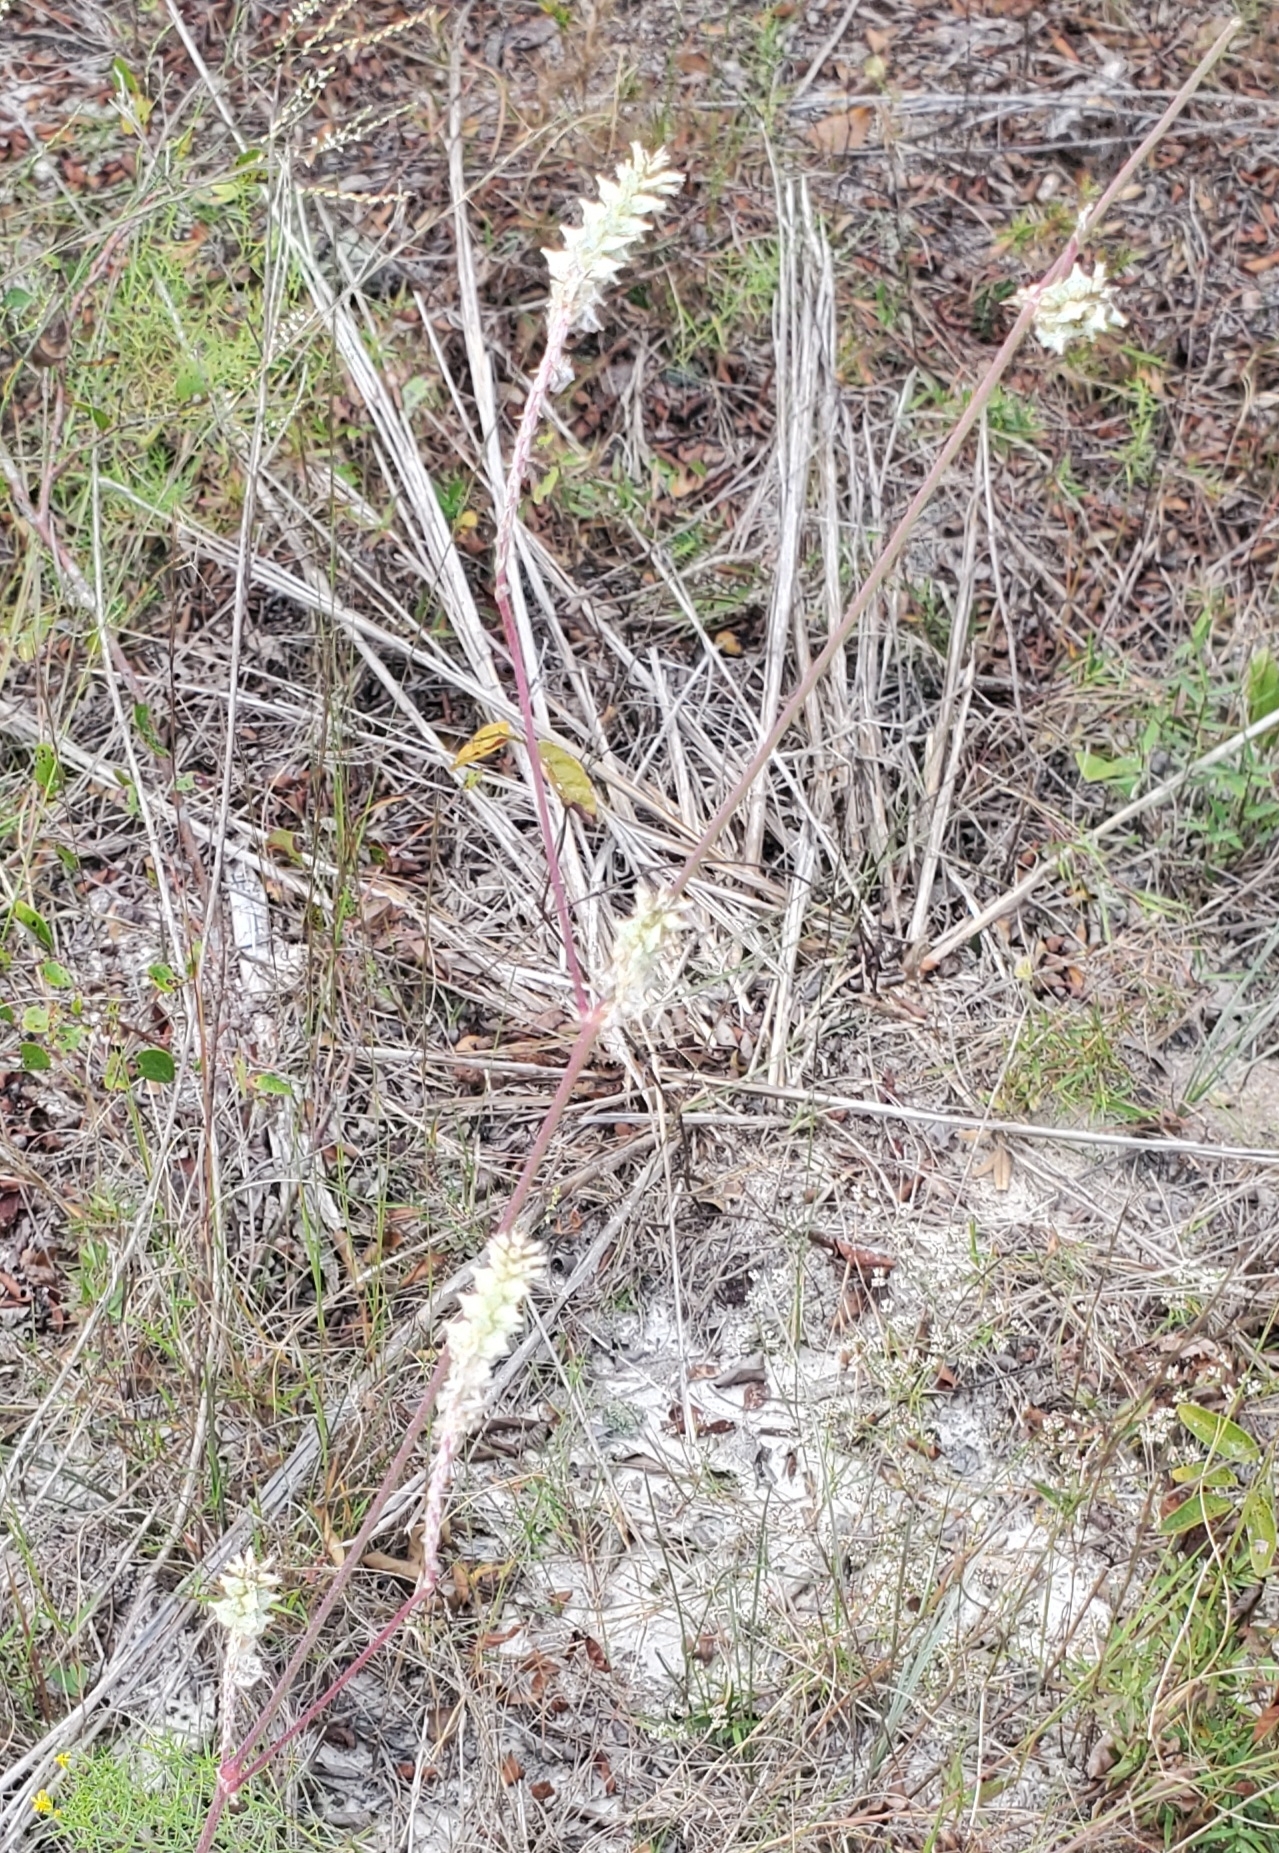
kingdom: Plantae
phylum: Tracheophyta
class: Magnoliopsida
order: Caryophyllales
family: Amaranthaceae
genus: Froelichia
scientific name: Froelichia floridana
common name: Florida snake-cotton
